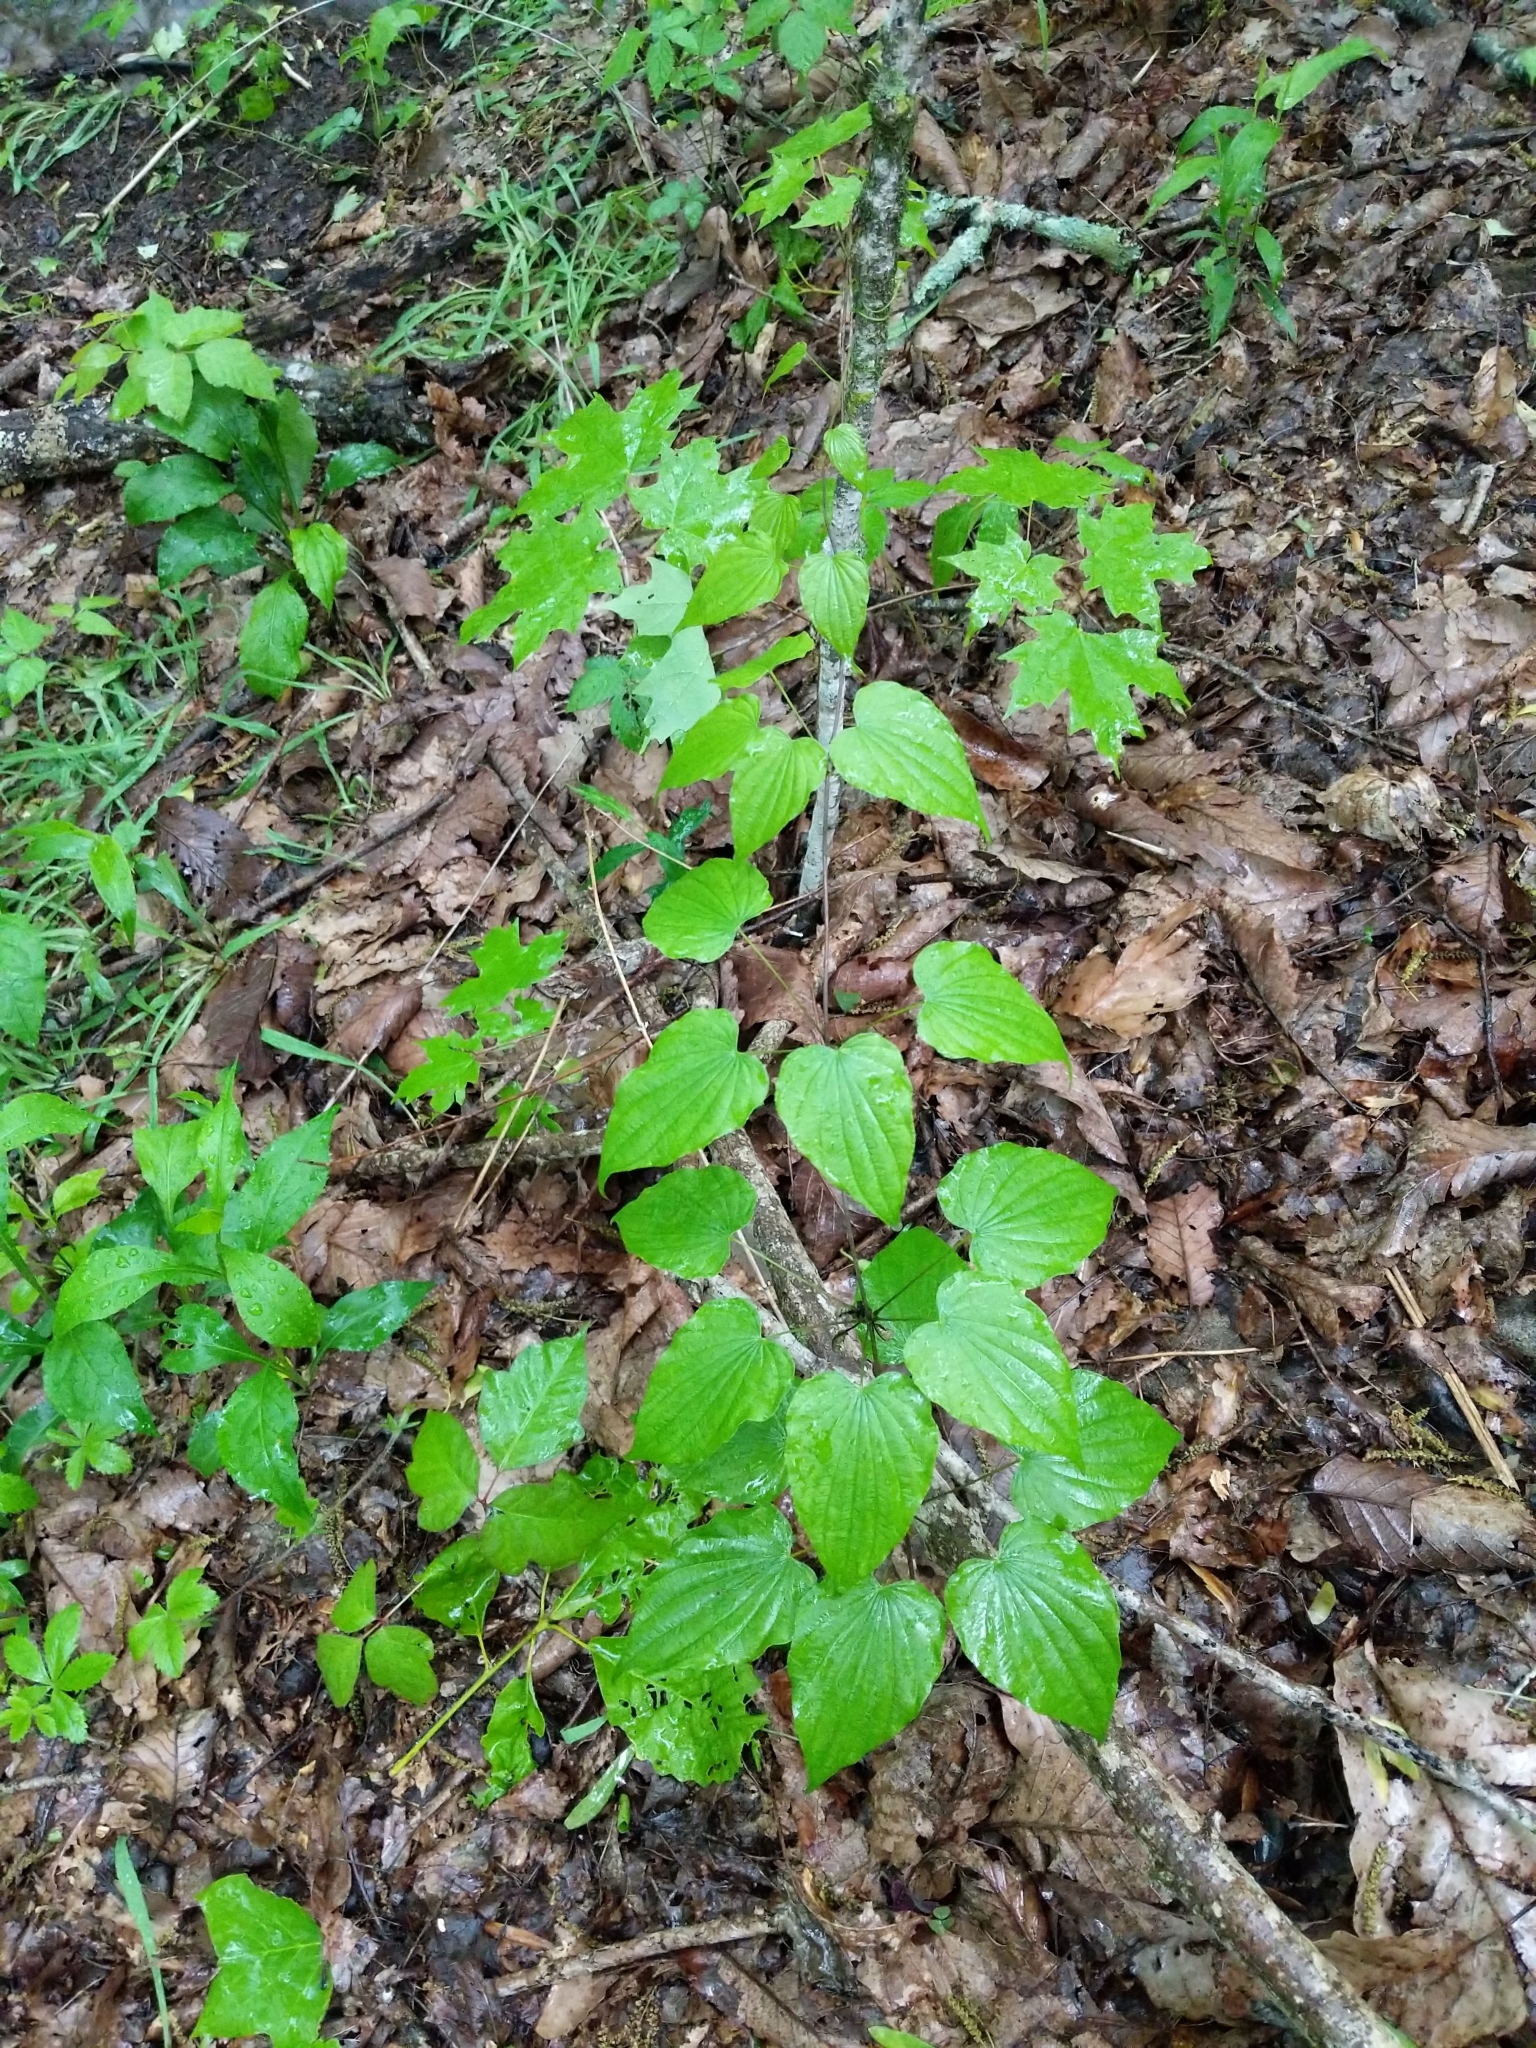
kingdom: Plantae
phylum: Tracheophyta
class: Liliopsida
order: Dioscoreales
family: Dioscoreaceae
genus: Dioscorea
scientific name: Dioscorea villosa
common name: Wild yam
